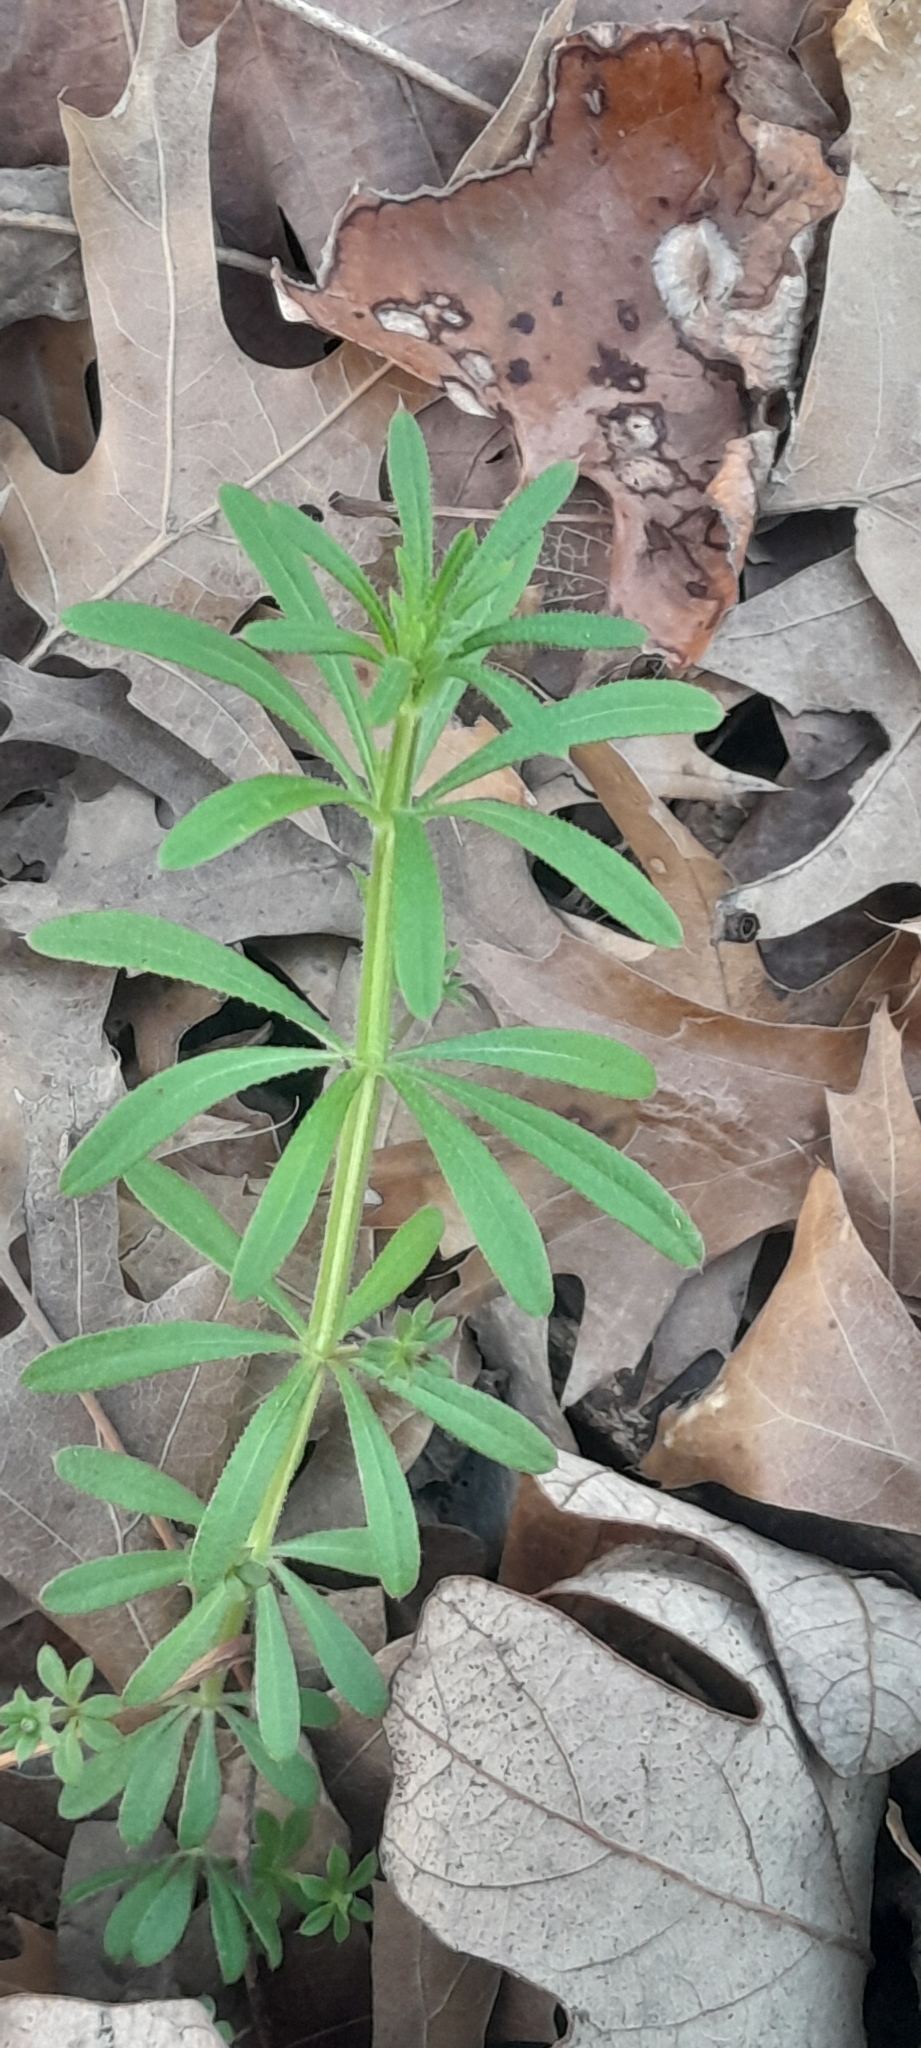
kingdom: Plantae
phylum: Tracheophyta
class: Magnoliopsida
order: Gentianales
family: Rubiaceae
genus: Galium
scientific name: Galium aparine
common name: Cleavers
